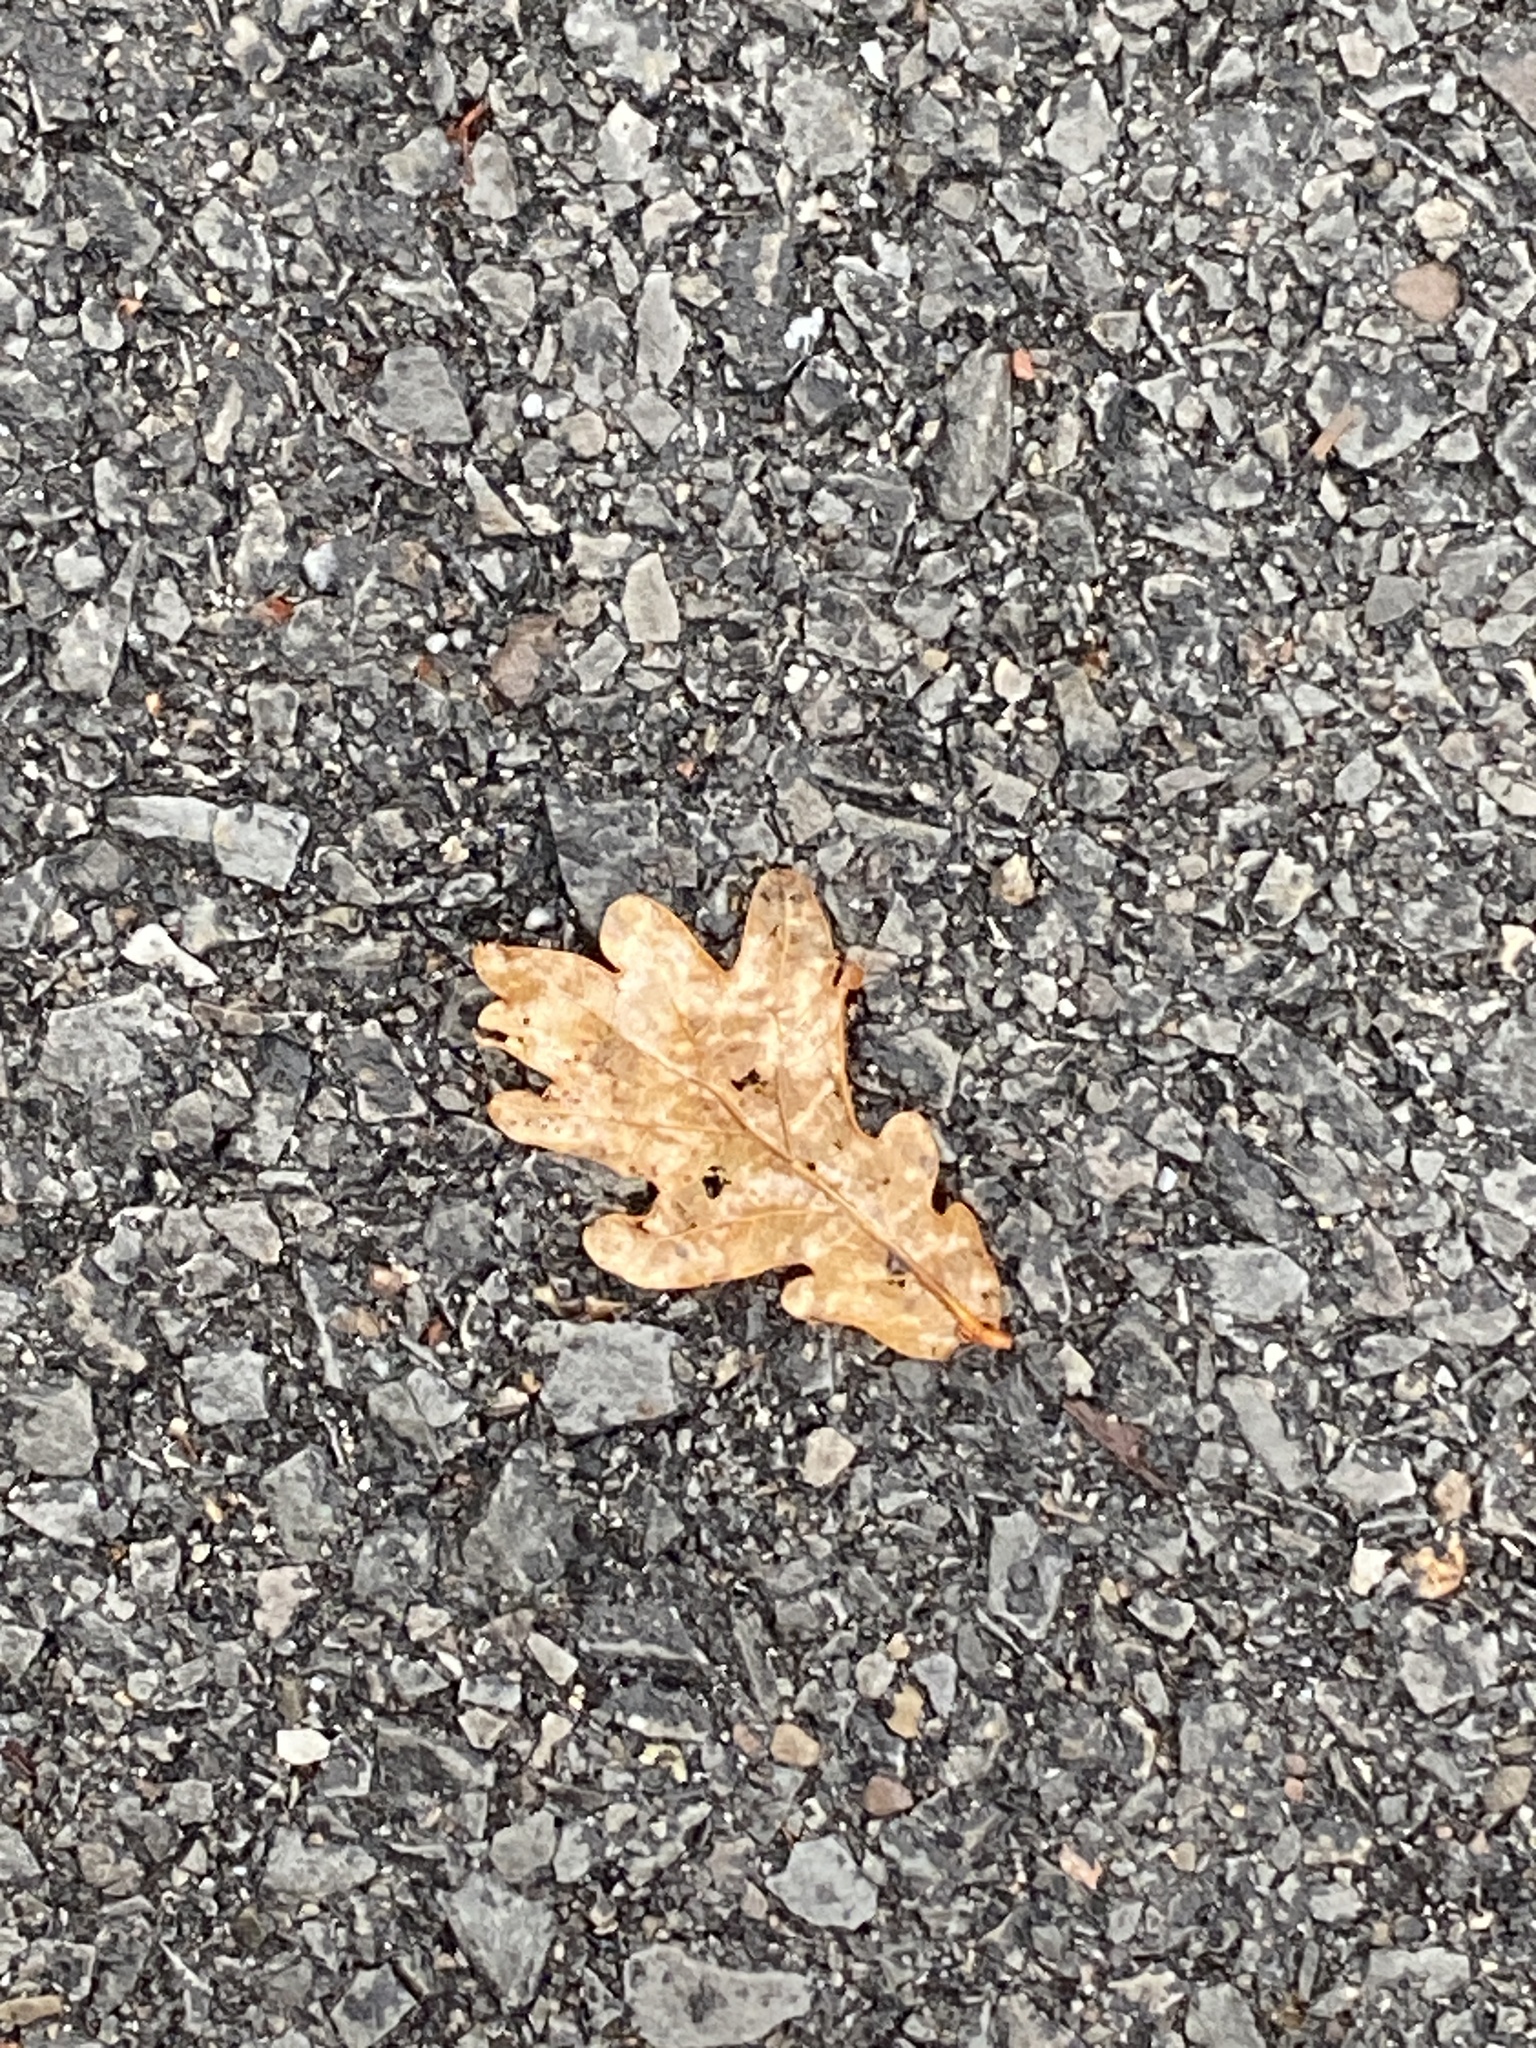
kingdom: Plantae
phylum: Tracheophyta
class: Magnoliopsida
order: Fagales
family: Fagaceae
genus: Quercus
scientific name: Quercus alba
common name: White oak
